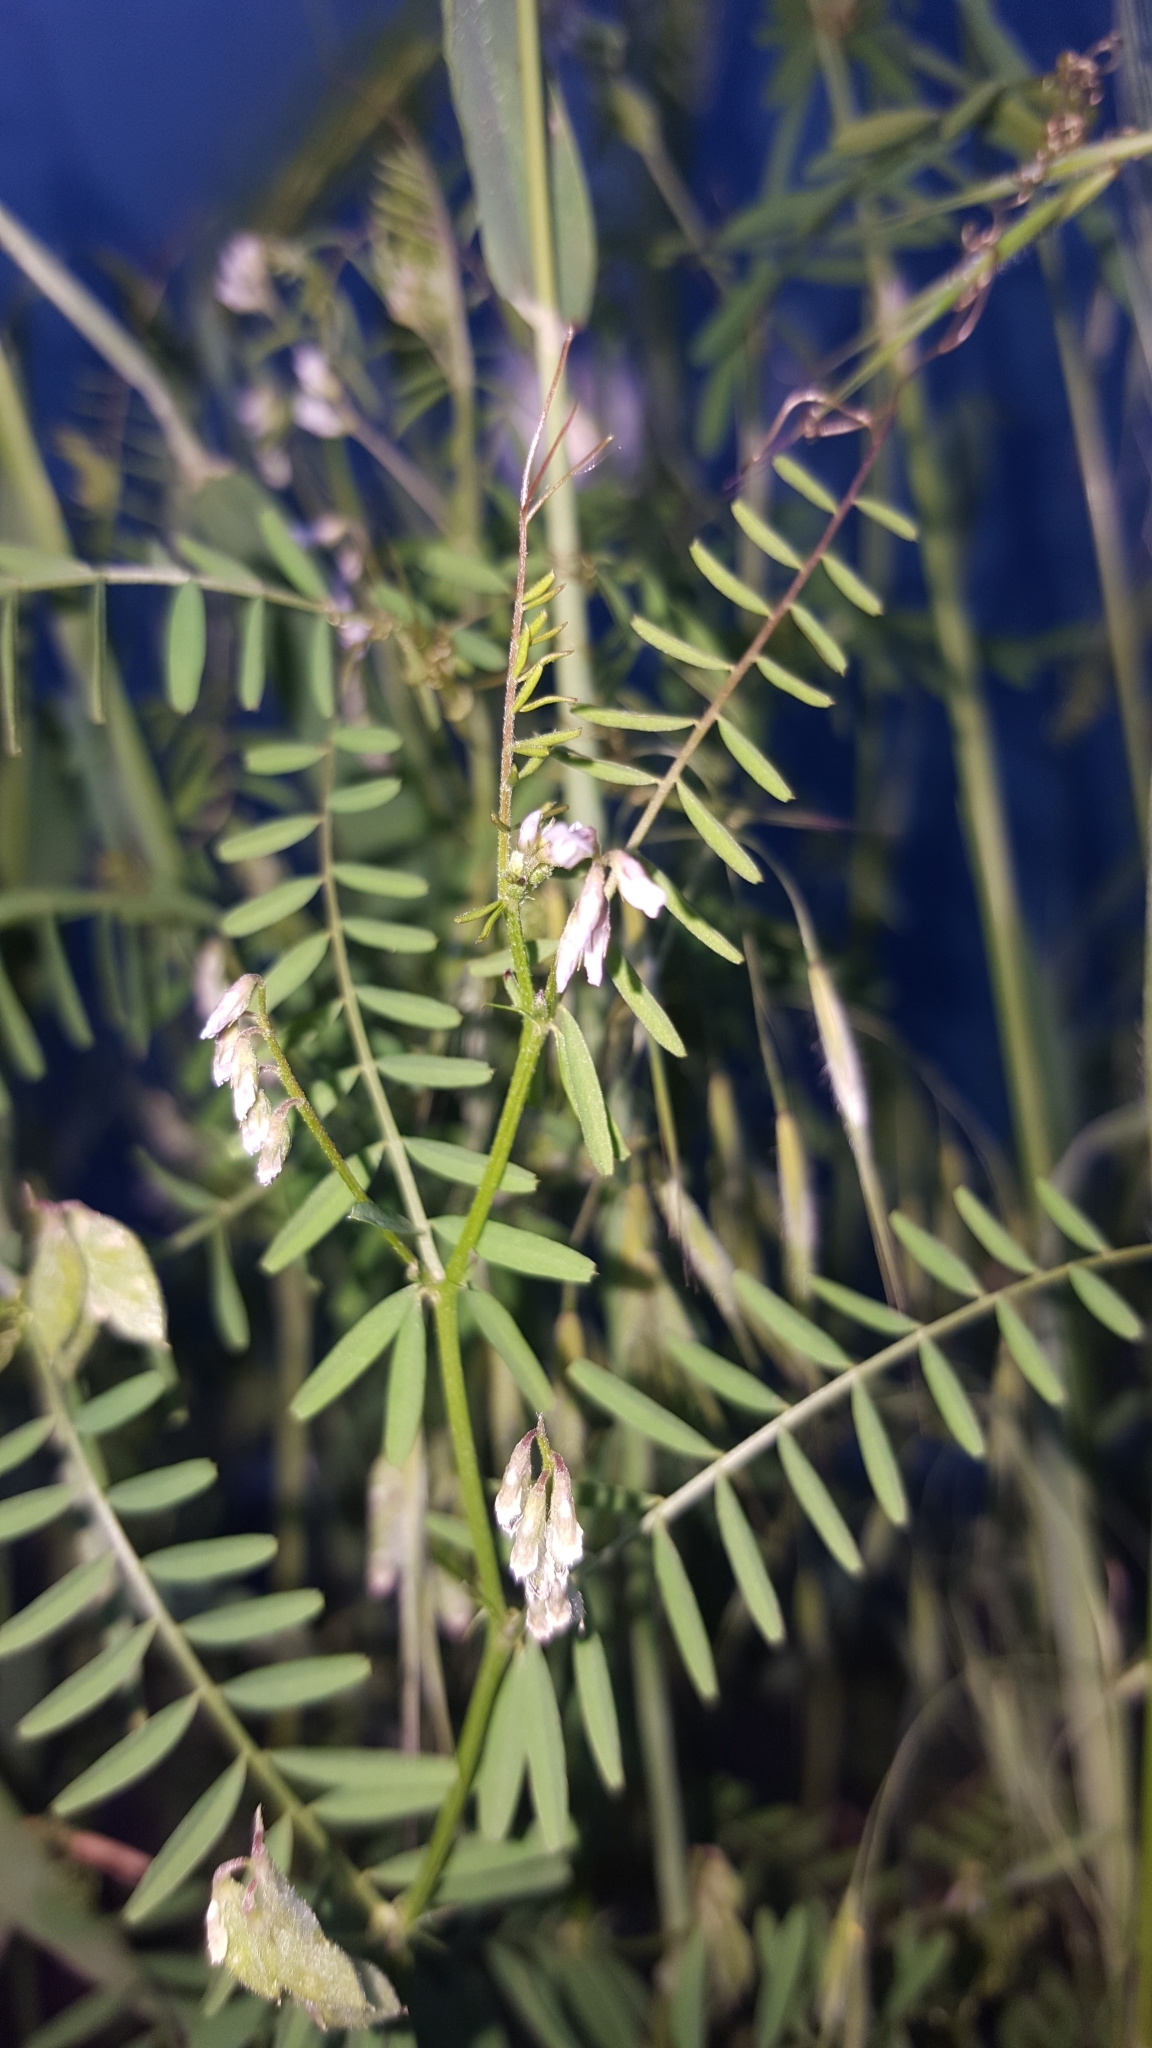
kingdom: Plantae
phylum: Tracheophyta
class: Magnoliopsida
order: Fabales
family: Fabaceae
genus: Vicia
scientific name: Vicia hirsuta
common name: Tiny vetch
